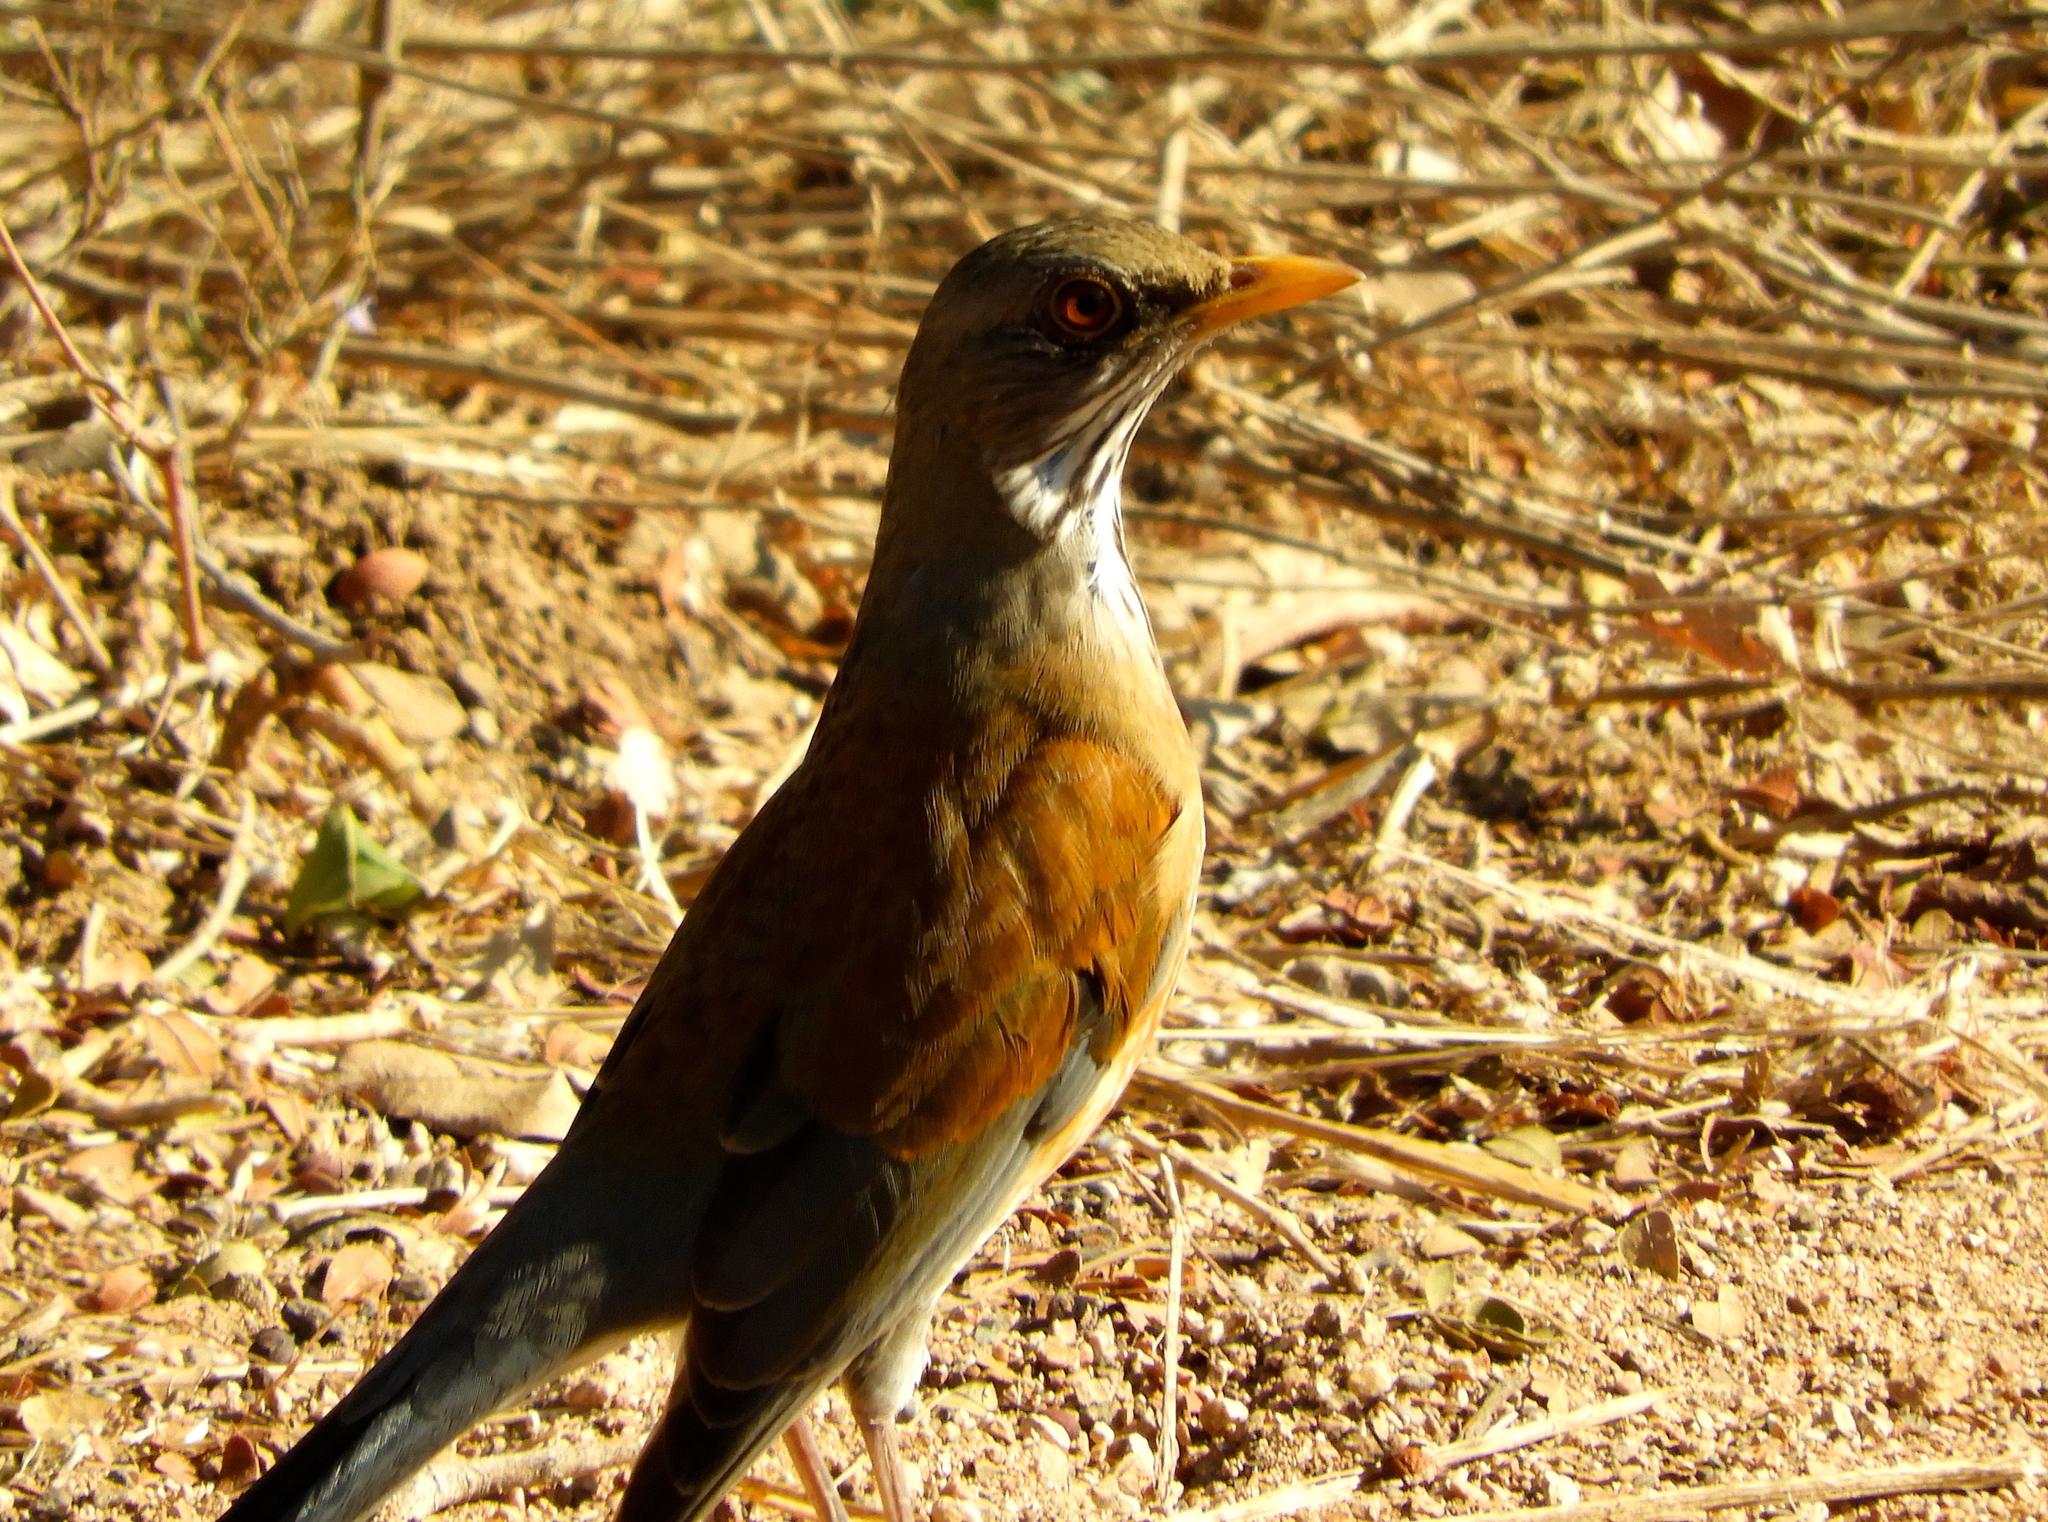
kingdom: Animalia
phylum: Chordata
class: Aves
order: Passeriformes
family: Turdidae
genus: Turdus
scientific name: Turdus rufopalliatus
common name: Rufous-backed robin
